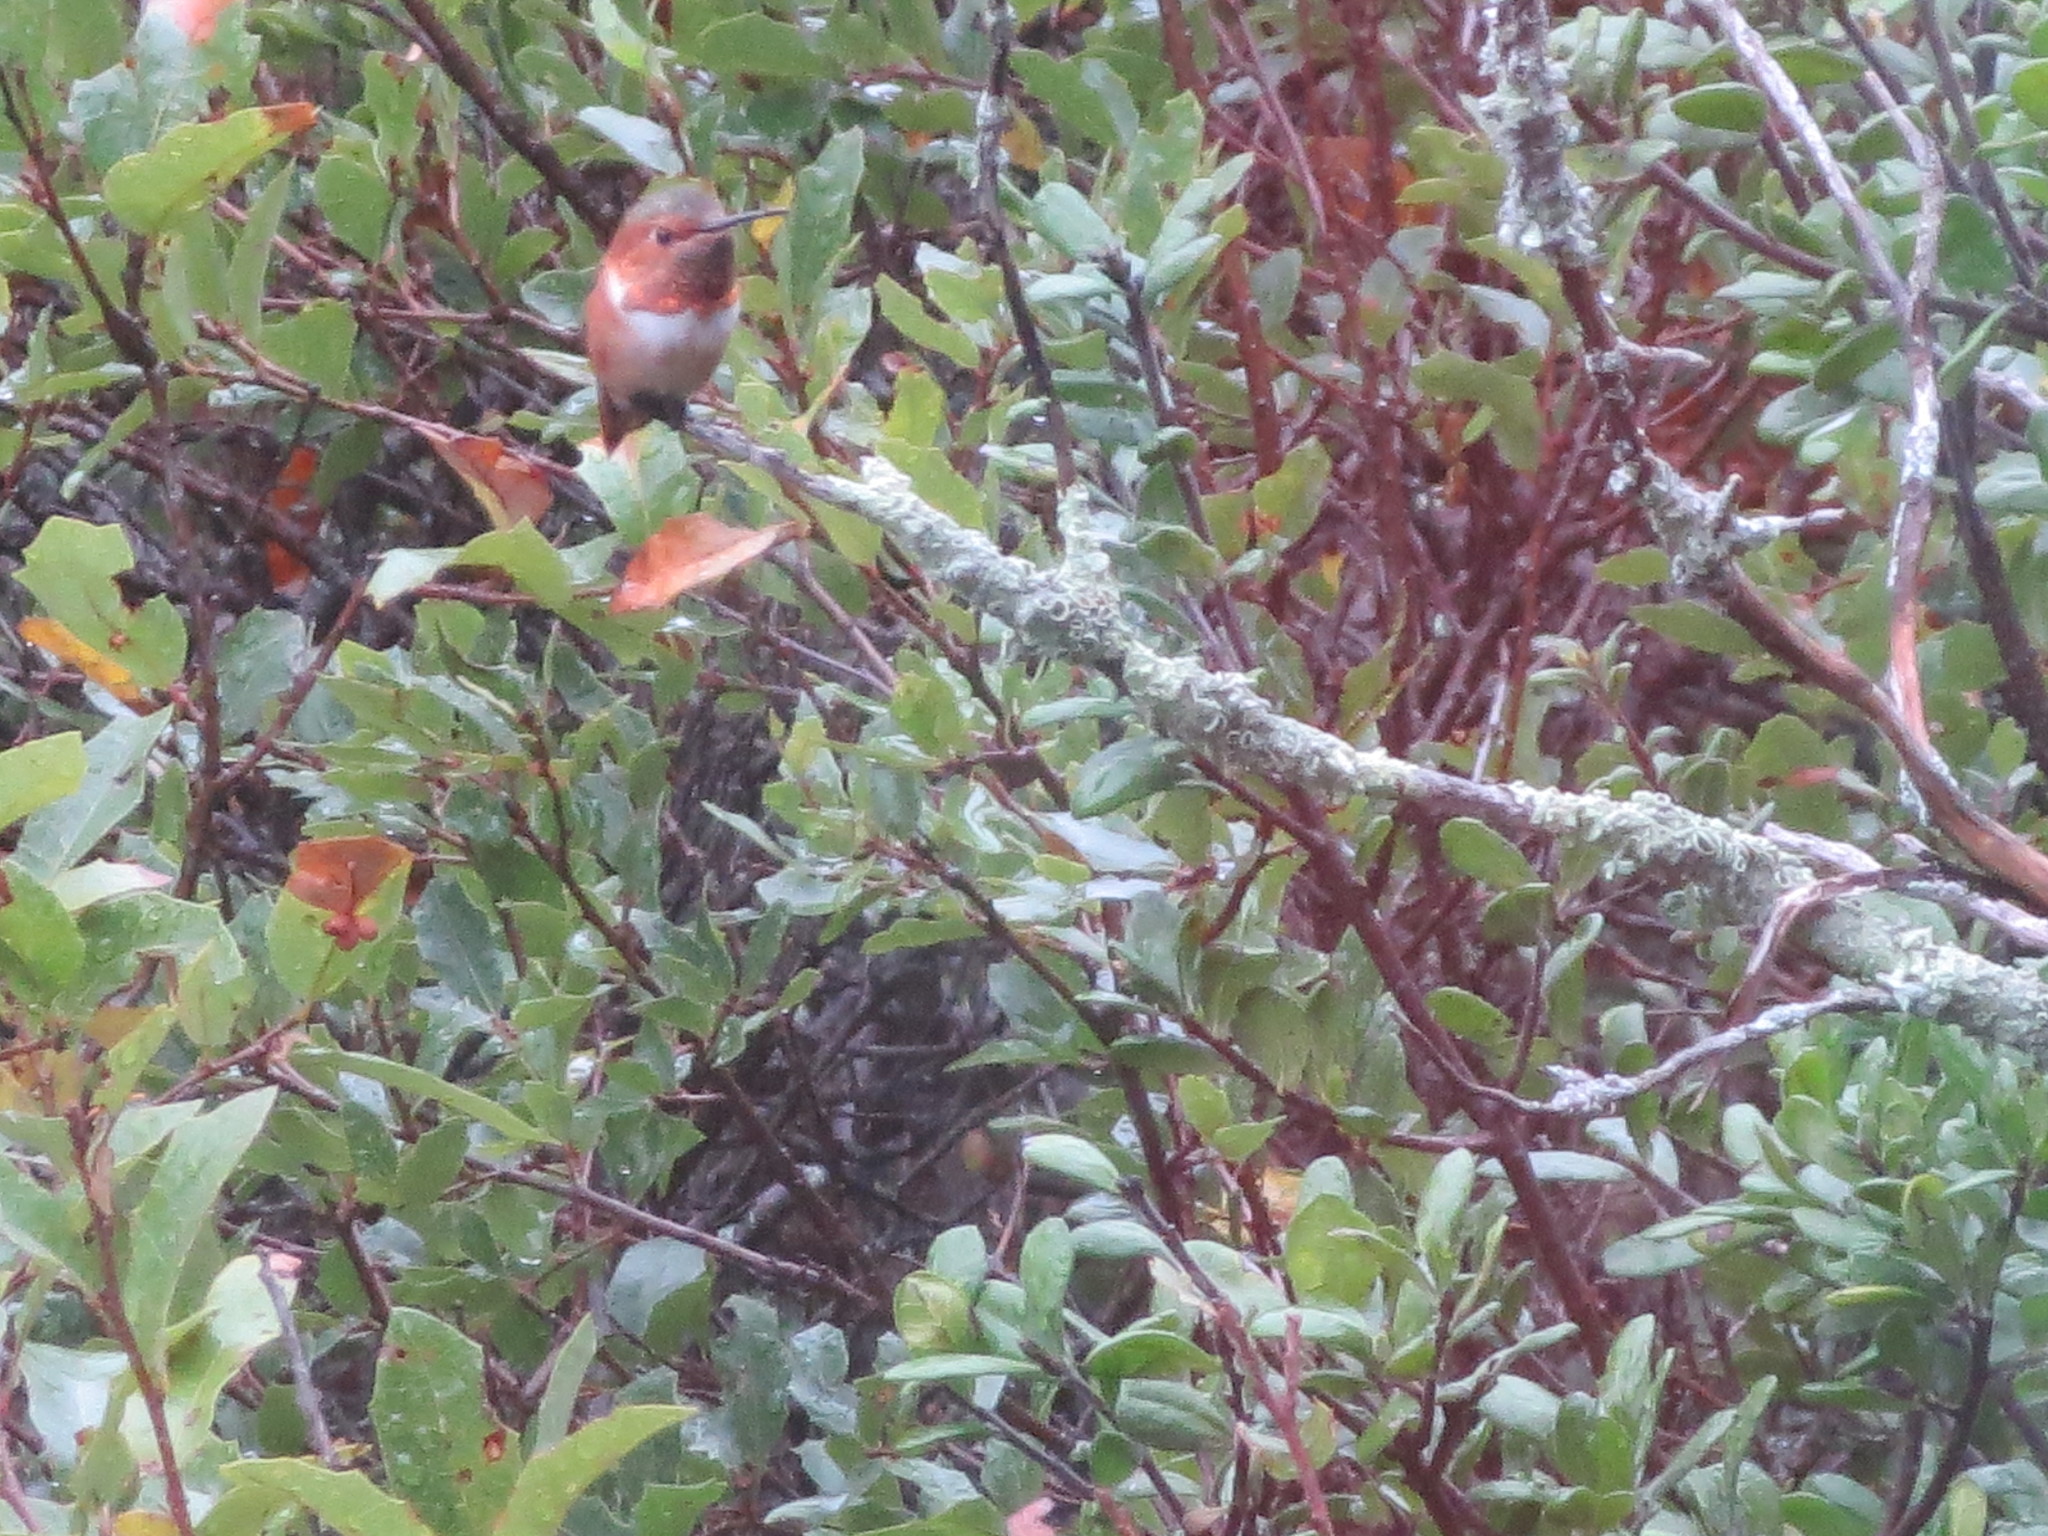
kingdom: Animalia
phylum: Chordata
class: Aves
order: Apodiformes
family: Trochilidae
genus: Selasphorus
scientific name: Selasphorus rufus
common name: Rufous hummingbird
